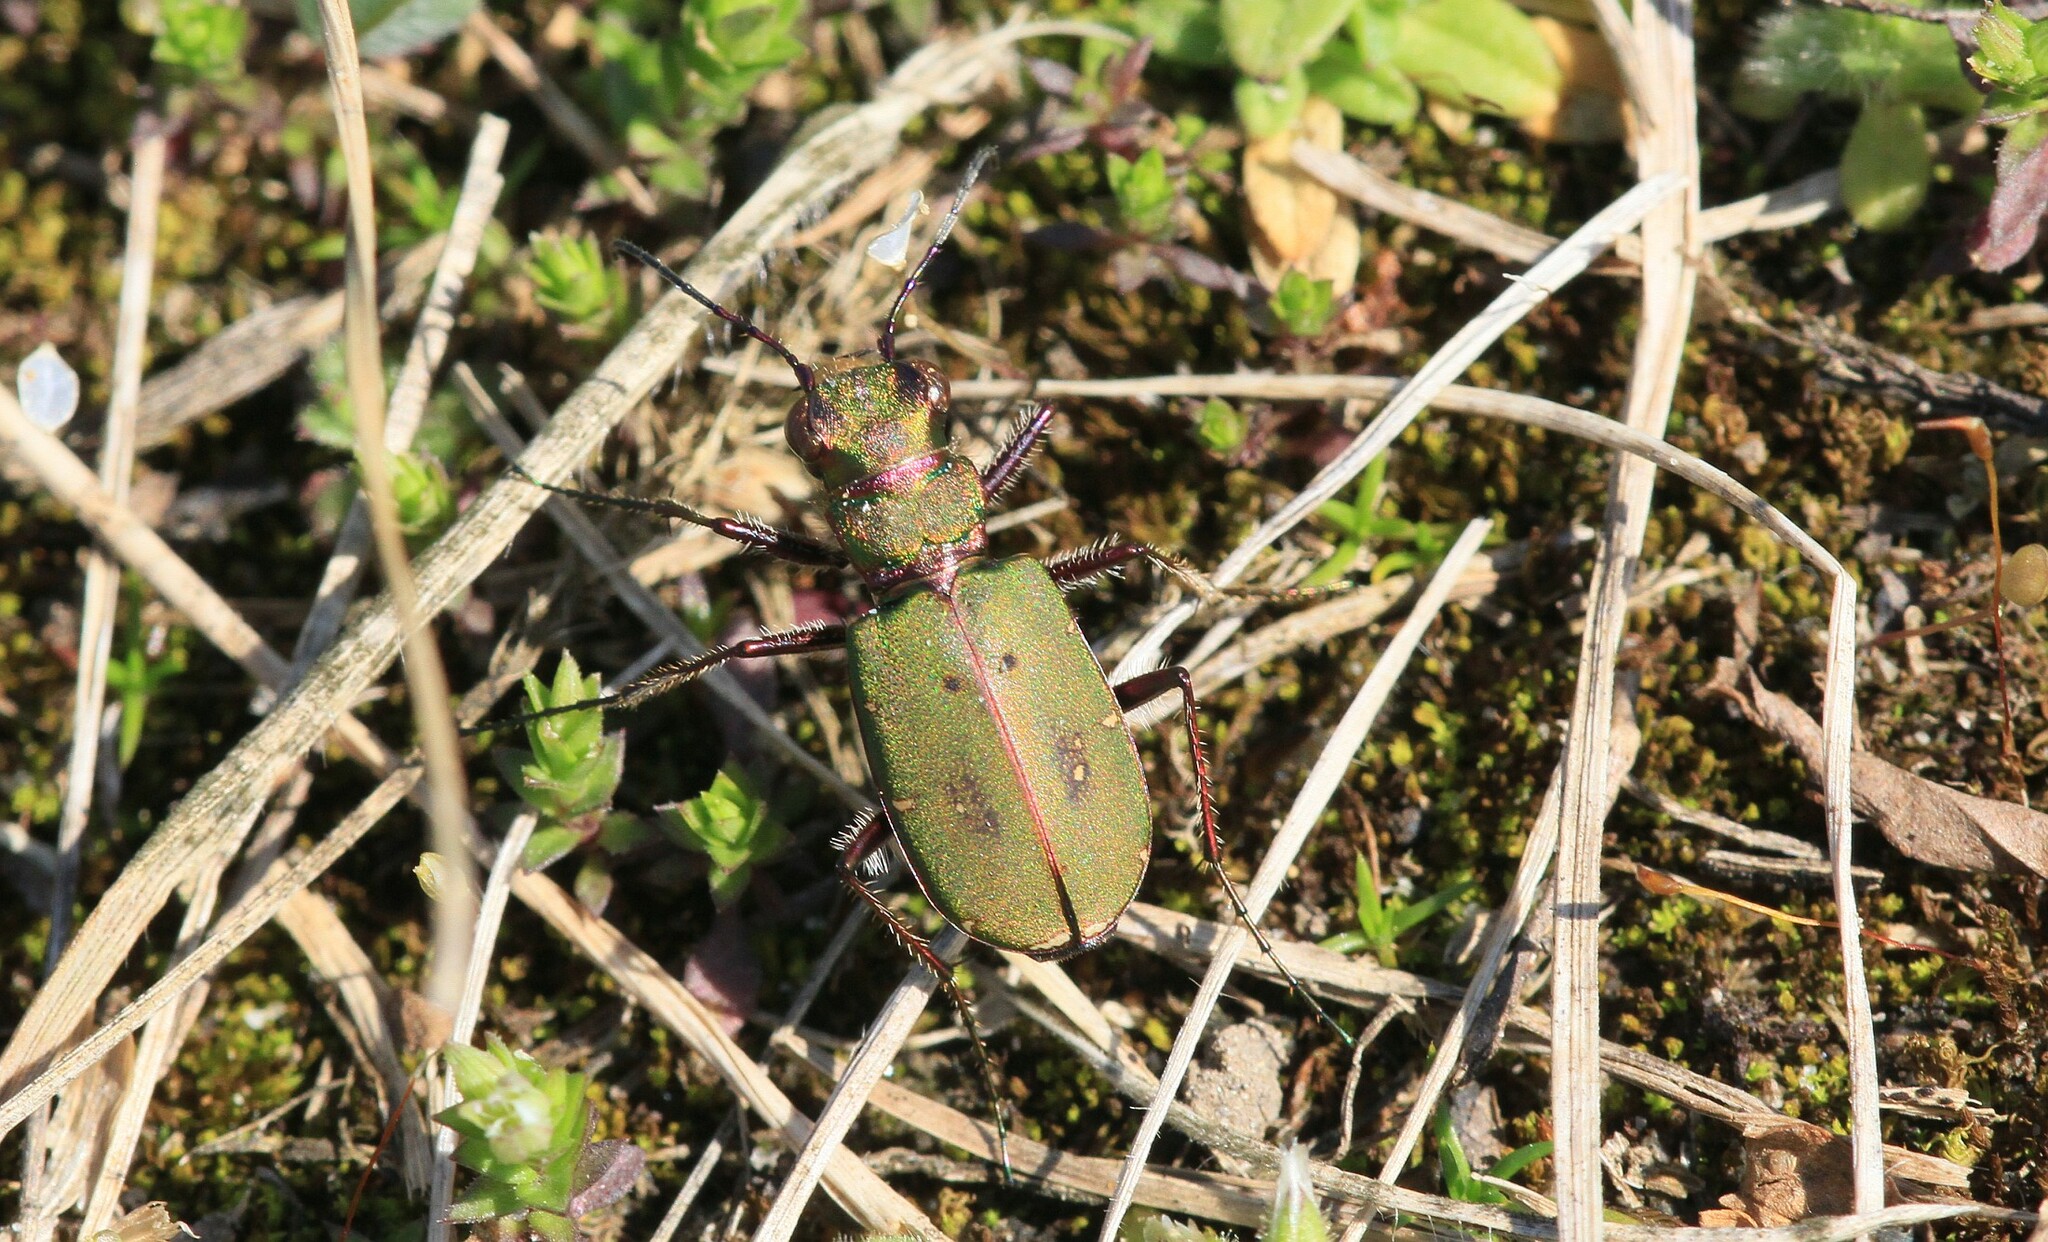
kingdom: Animalia
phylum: Arthropoda
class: Insecta
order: Coleoptera
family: Carabidae
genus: Cicindela
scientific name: Cicindela campestris
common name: Common tiger beetle
